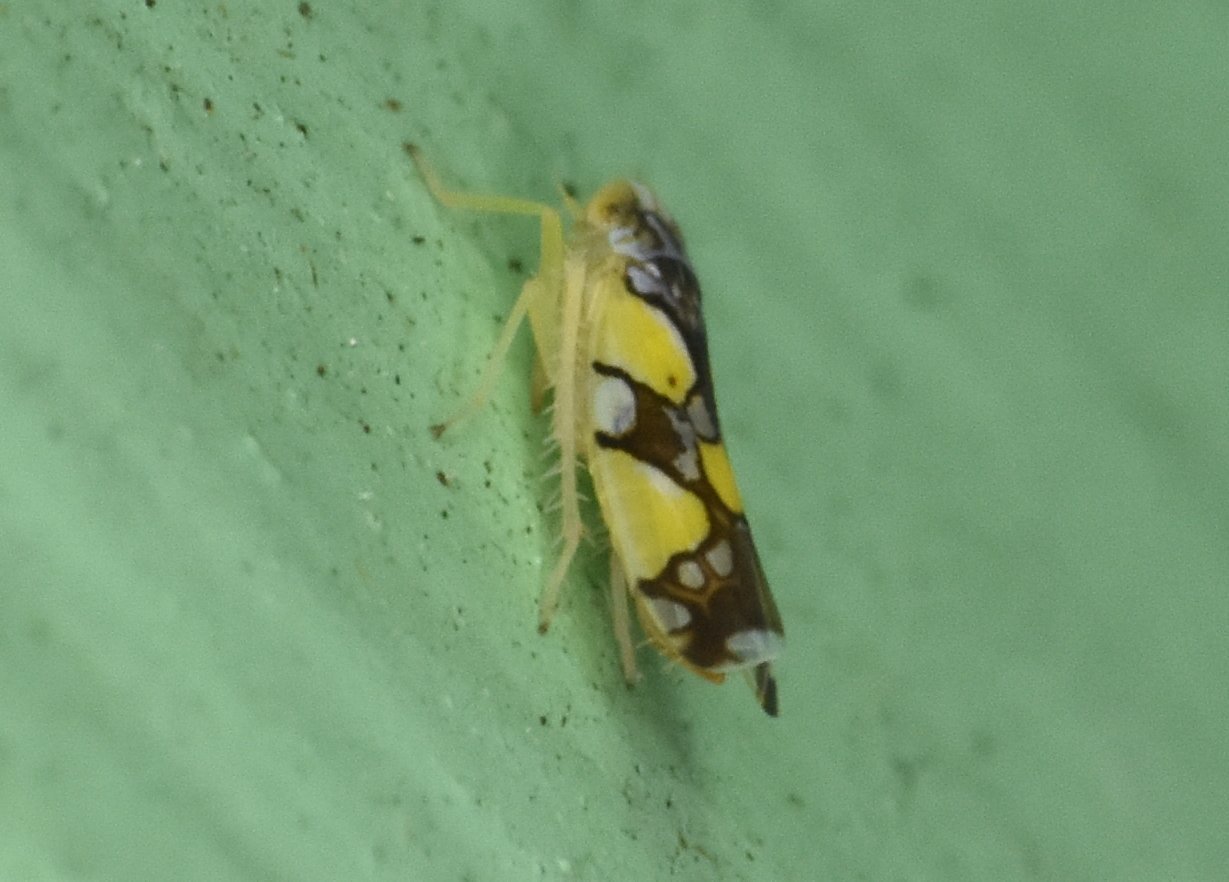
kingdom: Animalia
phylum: Arthropoda
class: Insecta
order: Hemiptera
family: Cicadellidae
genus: Protalebrella
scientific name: Protalebrella brasiliensis
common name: Brasilian leafhopper
